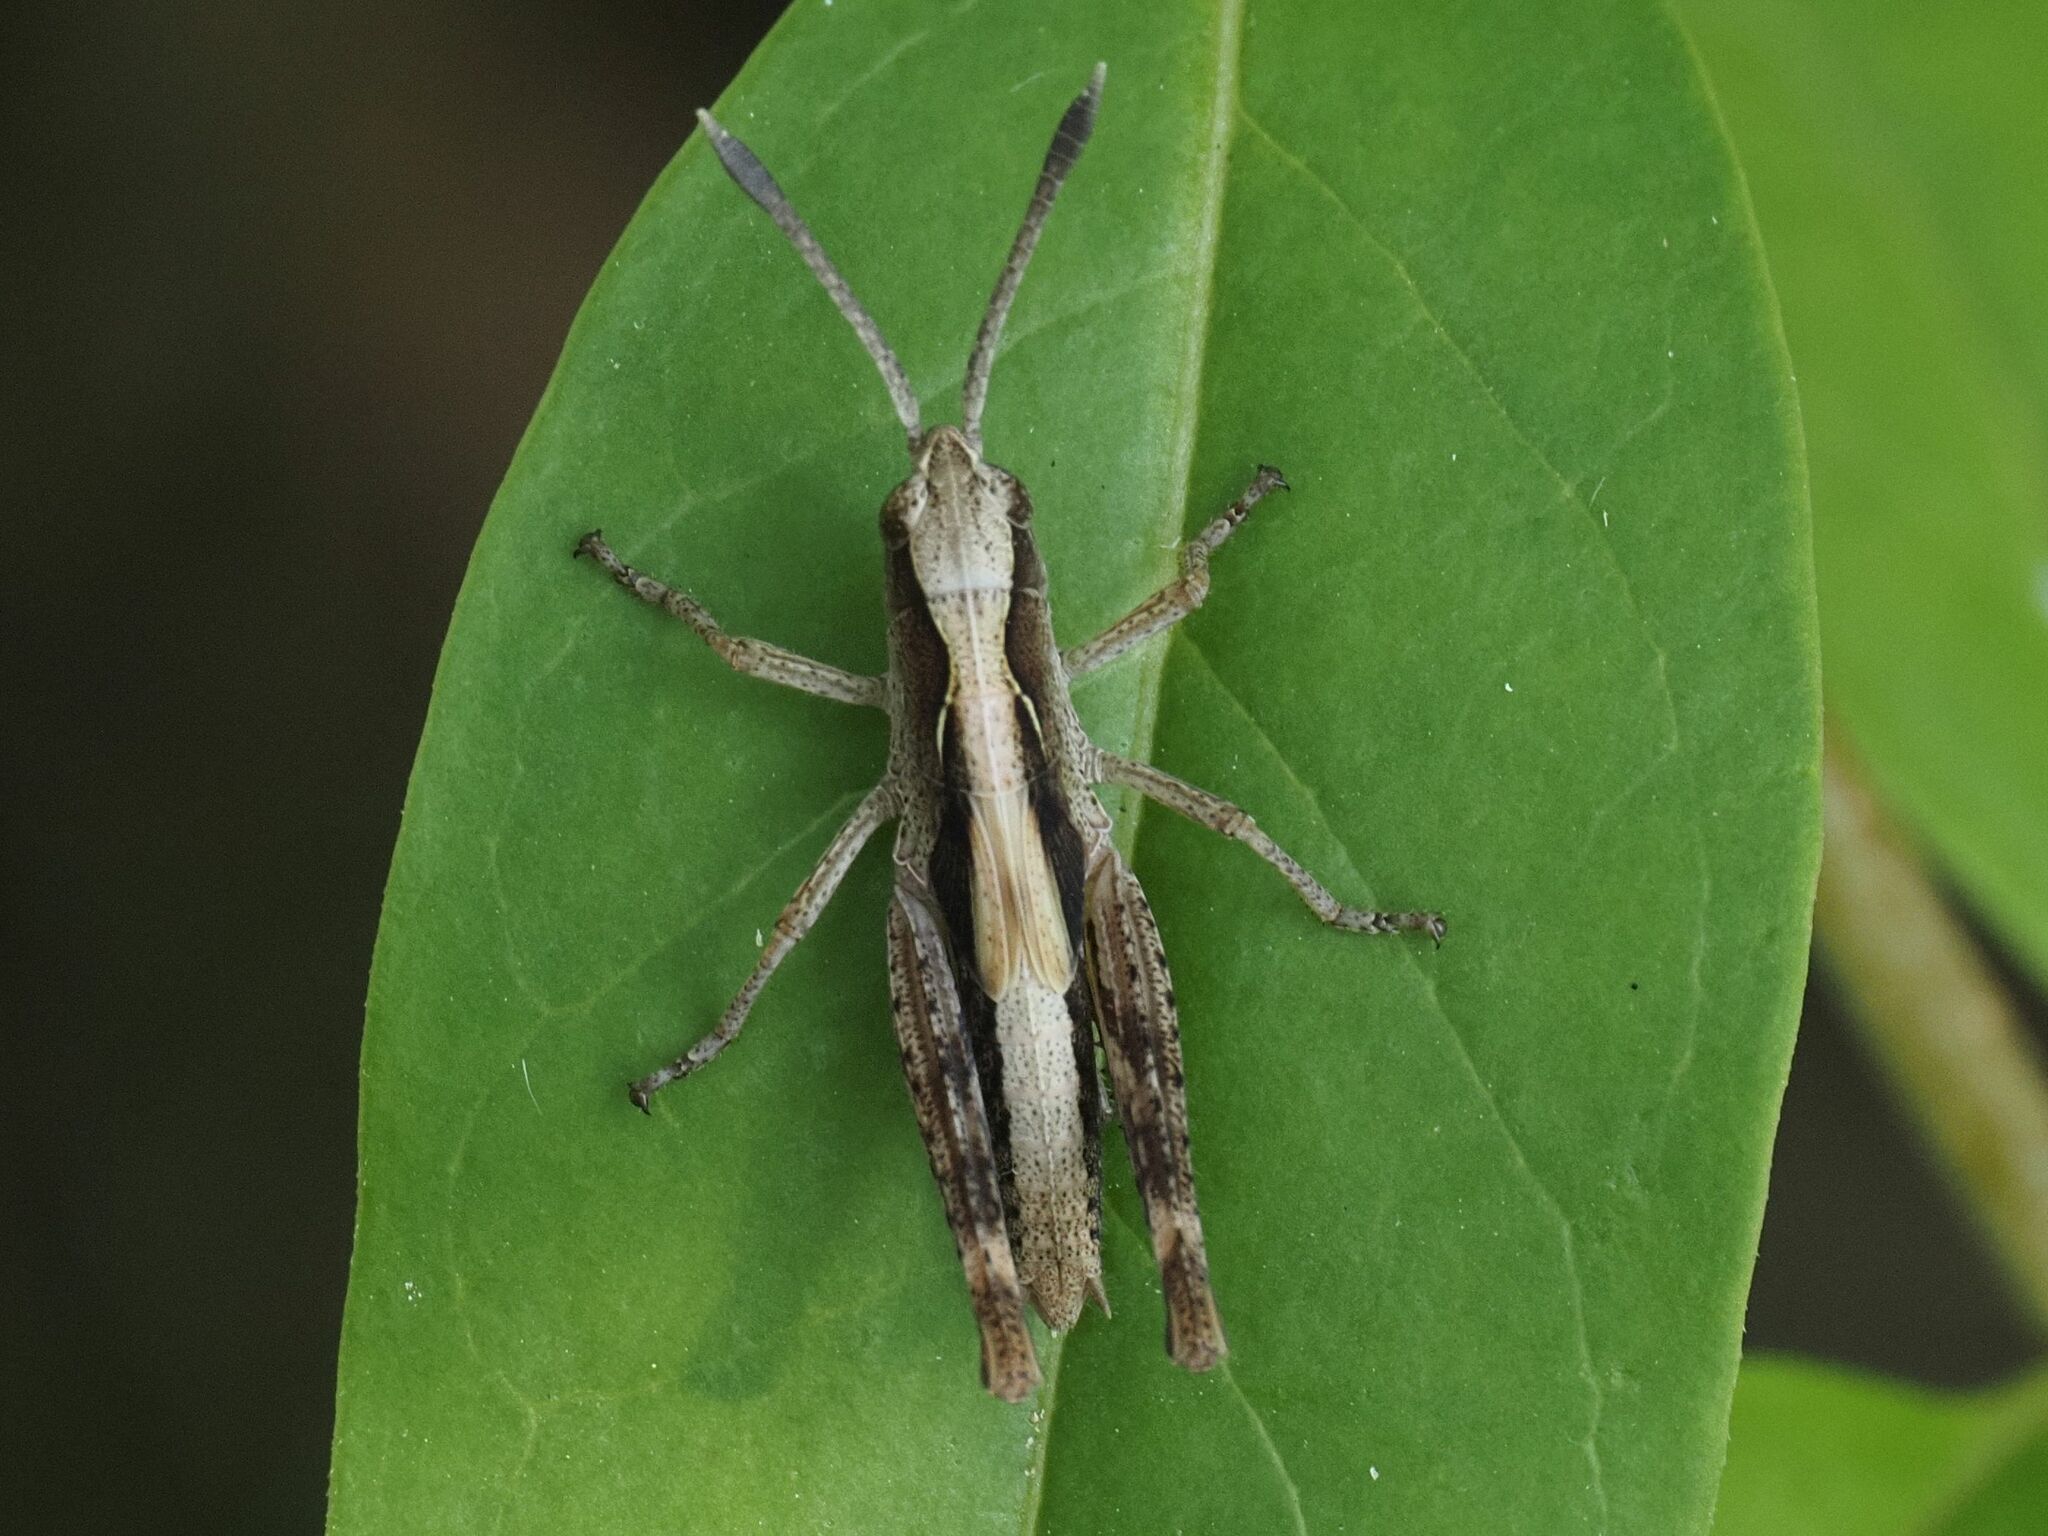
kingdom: Animalia
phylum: Arthropoda
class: Insecta
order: Orthoptera
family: Acrididae
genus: Gomphocerippus
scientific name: Gomphocerippus rufus
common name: Rufous grasshopper
